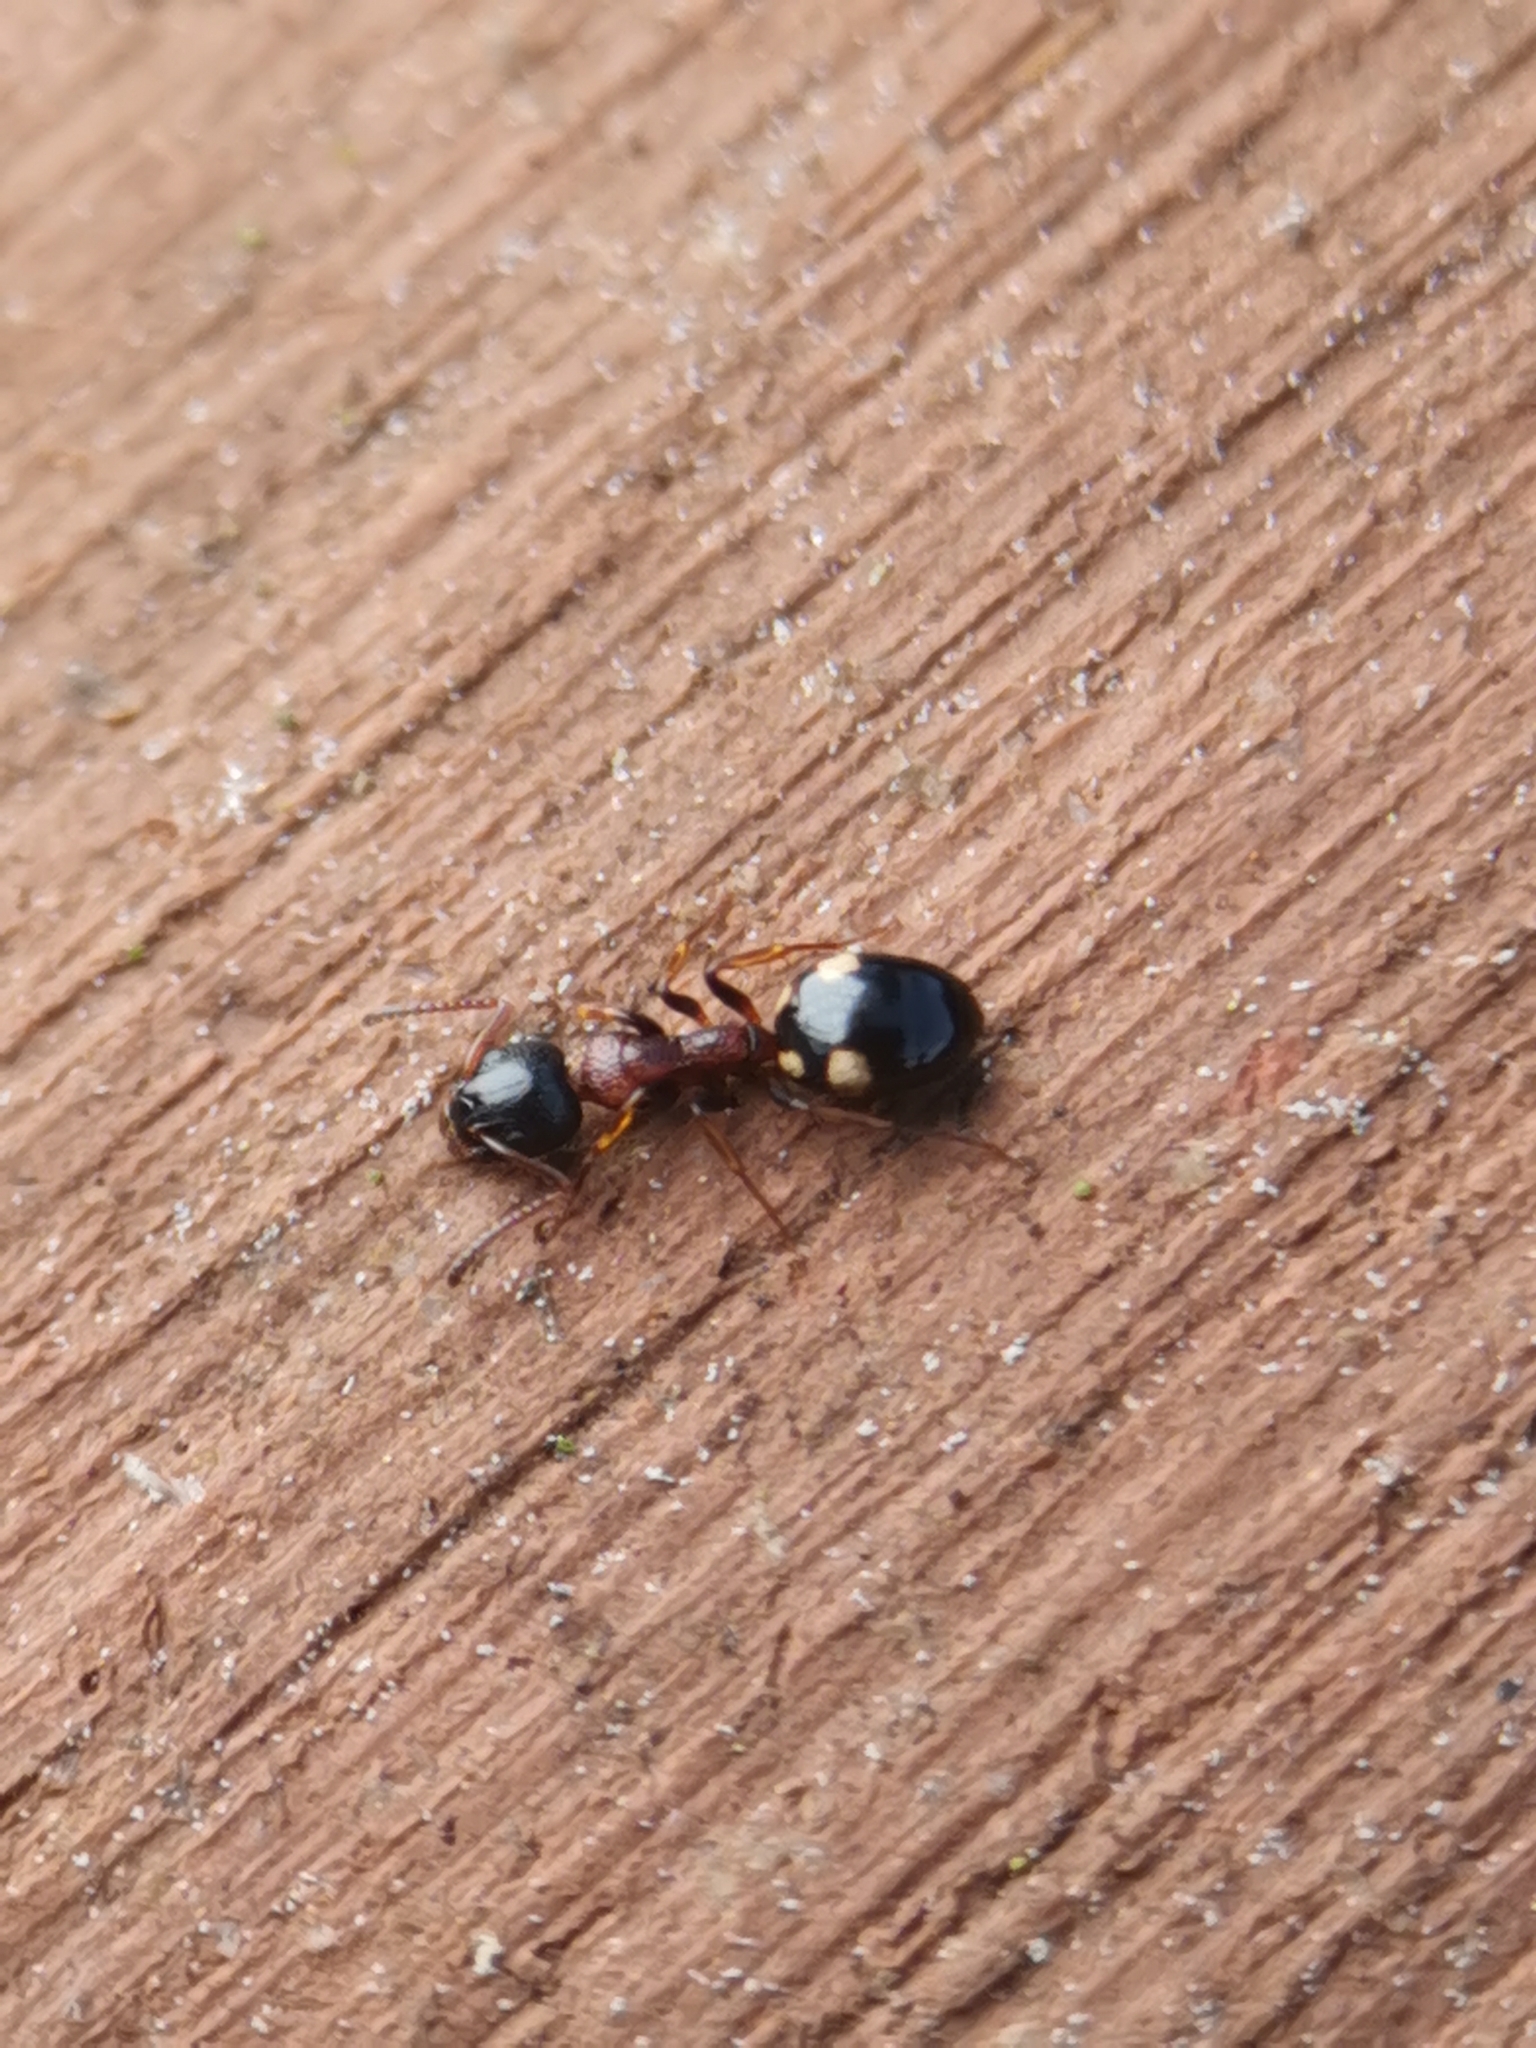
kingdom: Animalia
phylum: Arthropoda
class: Insecta
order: Hymenoptera
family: Formicidae
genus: Dolichoderus
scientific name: Dolichoderus quadripunctatus
